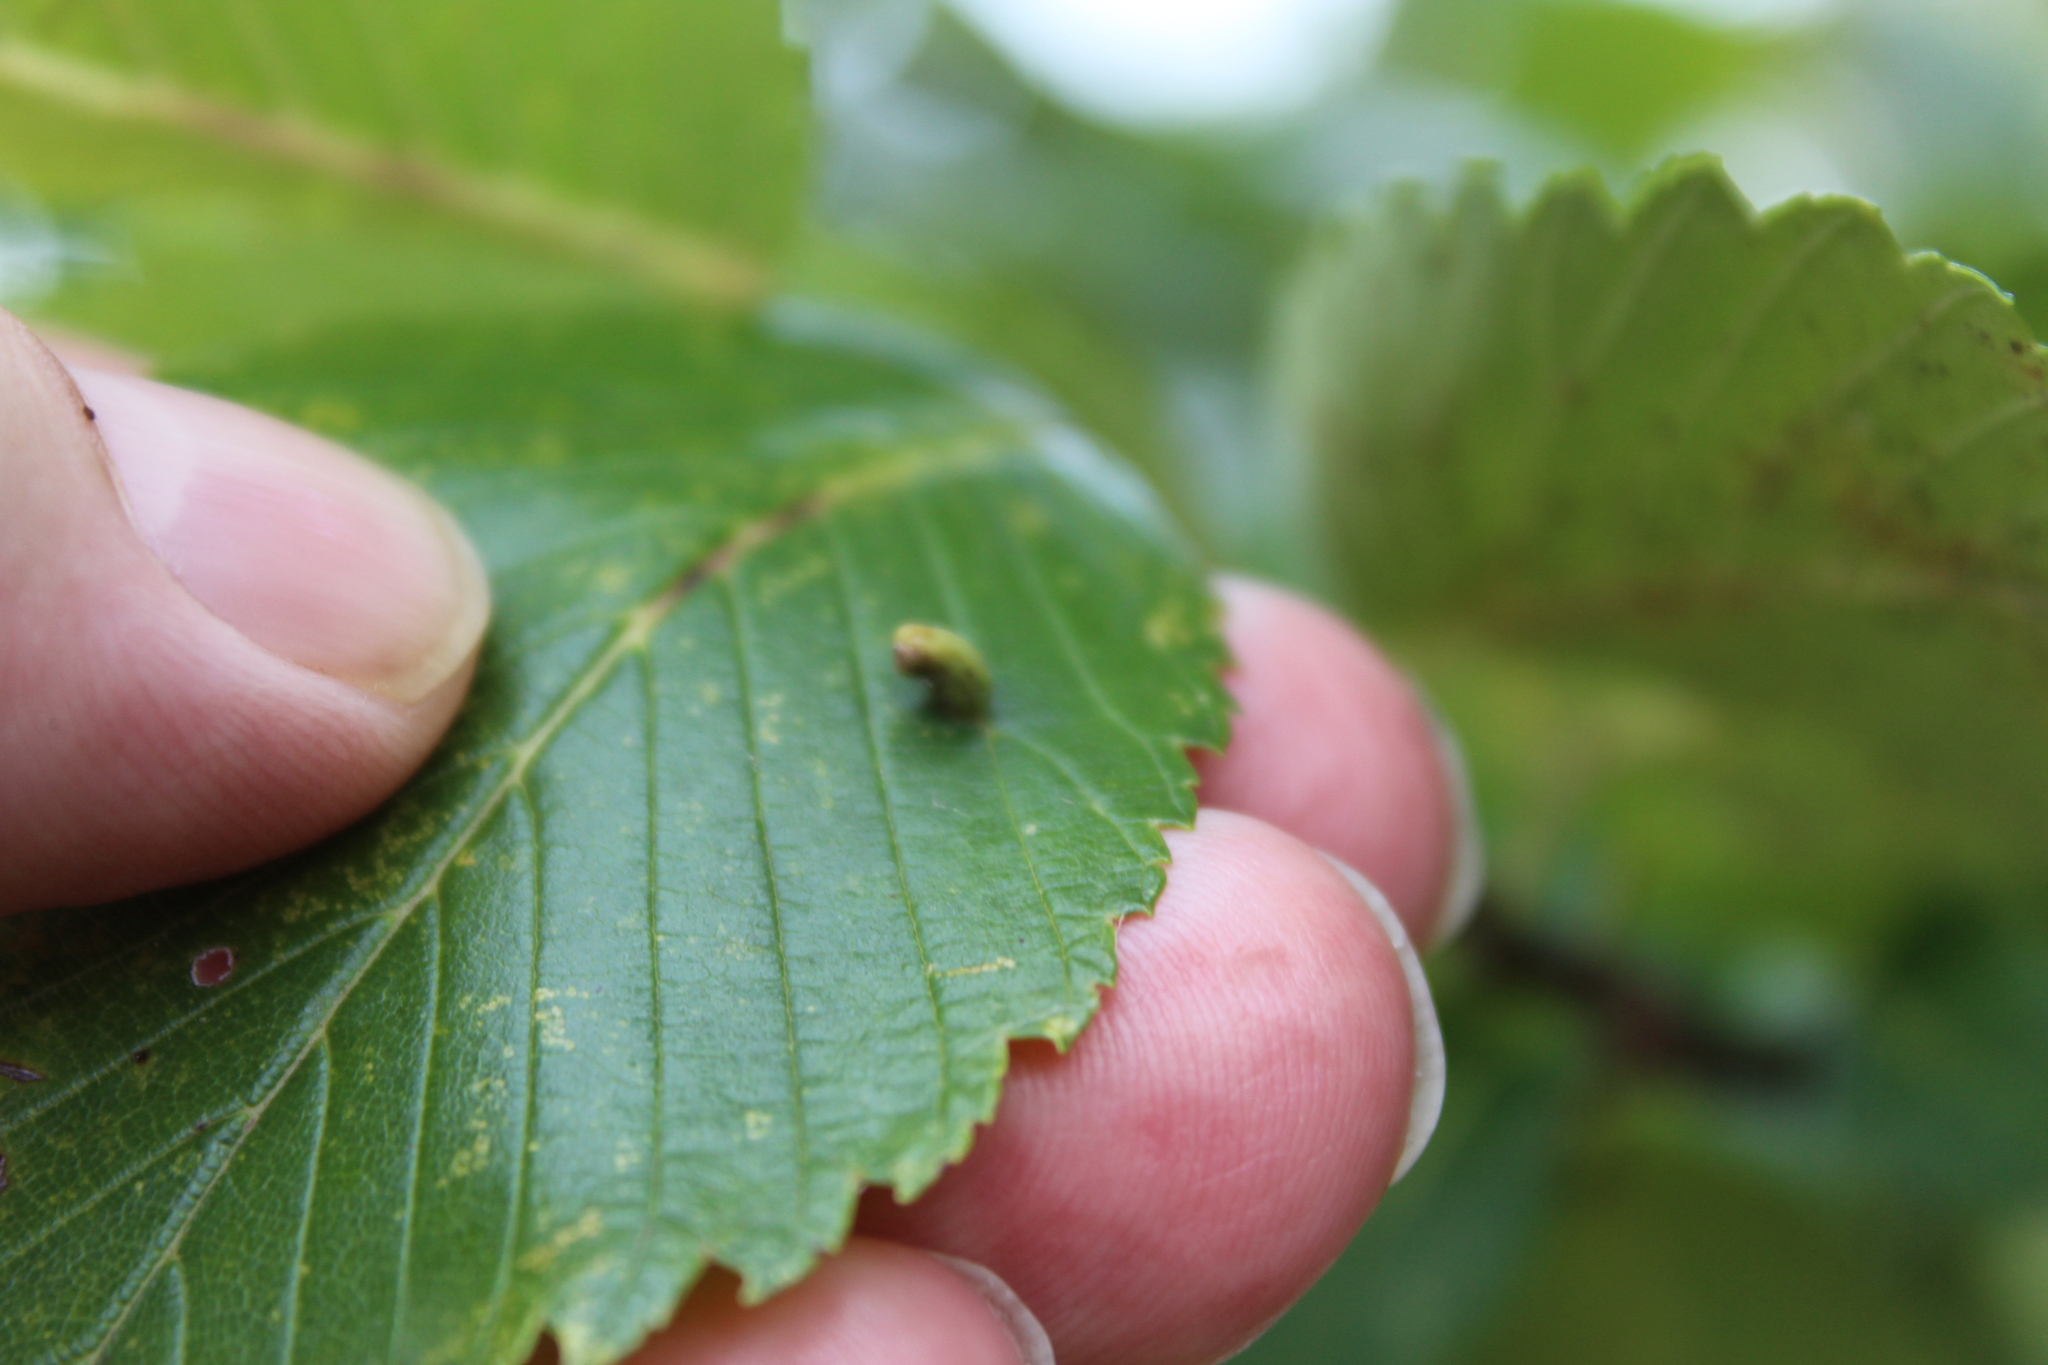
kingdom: Animalia
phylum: Arthropoda
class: Arachnida
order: Trombidiformes
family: Eriophyidae
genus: Aceria
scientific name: Aceria
